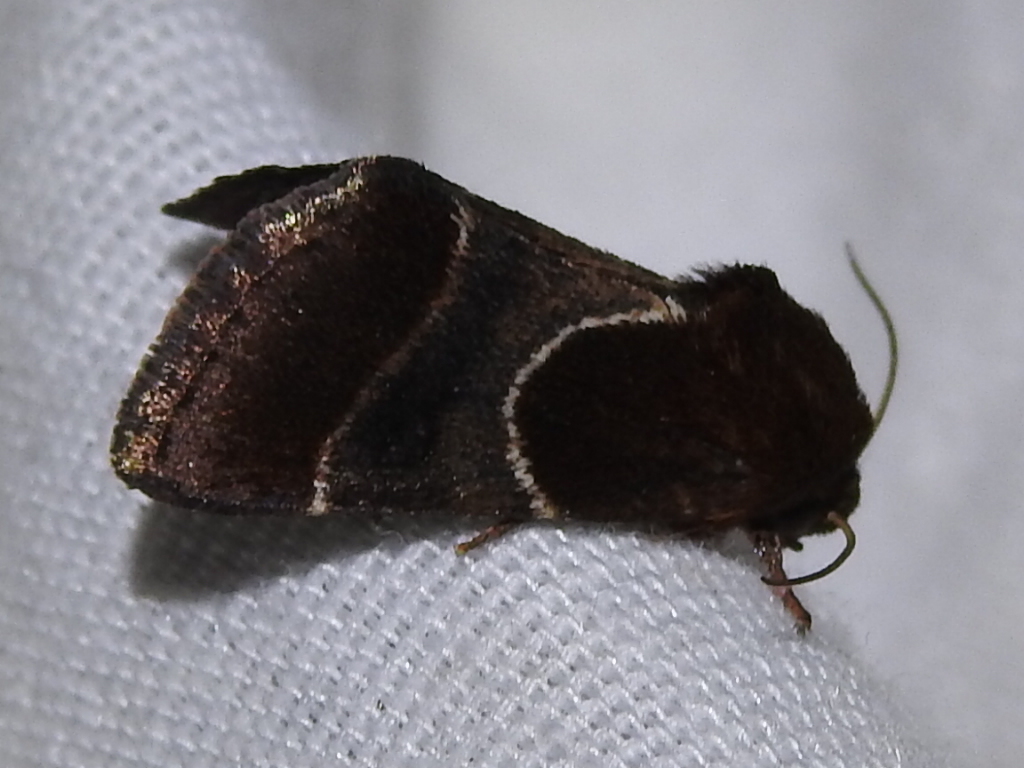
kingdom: Animalia
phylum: Arthropoda
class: Insecta
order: Lepidoptera
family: Noctuidae
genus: Schinia
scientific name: Schinia arcigera
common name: Arcigera flower moth
